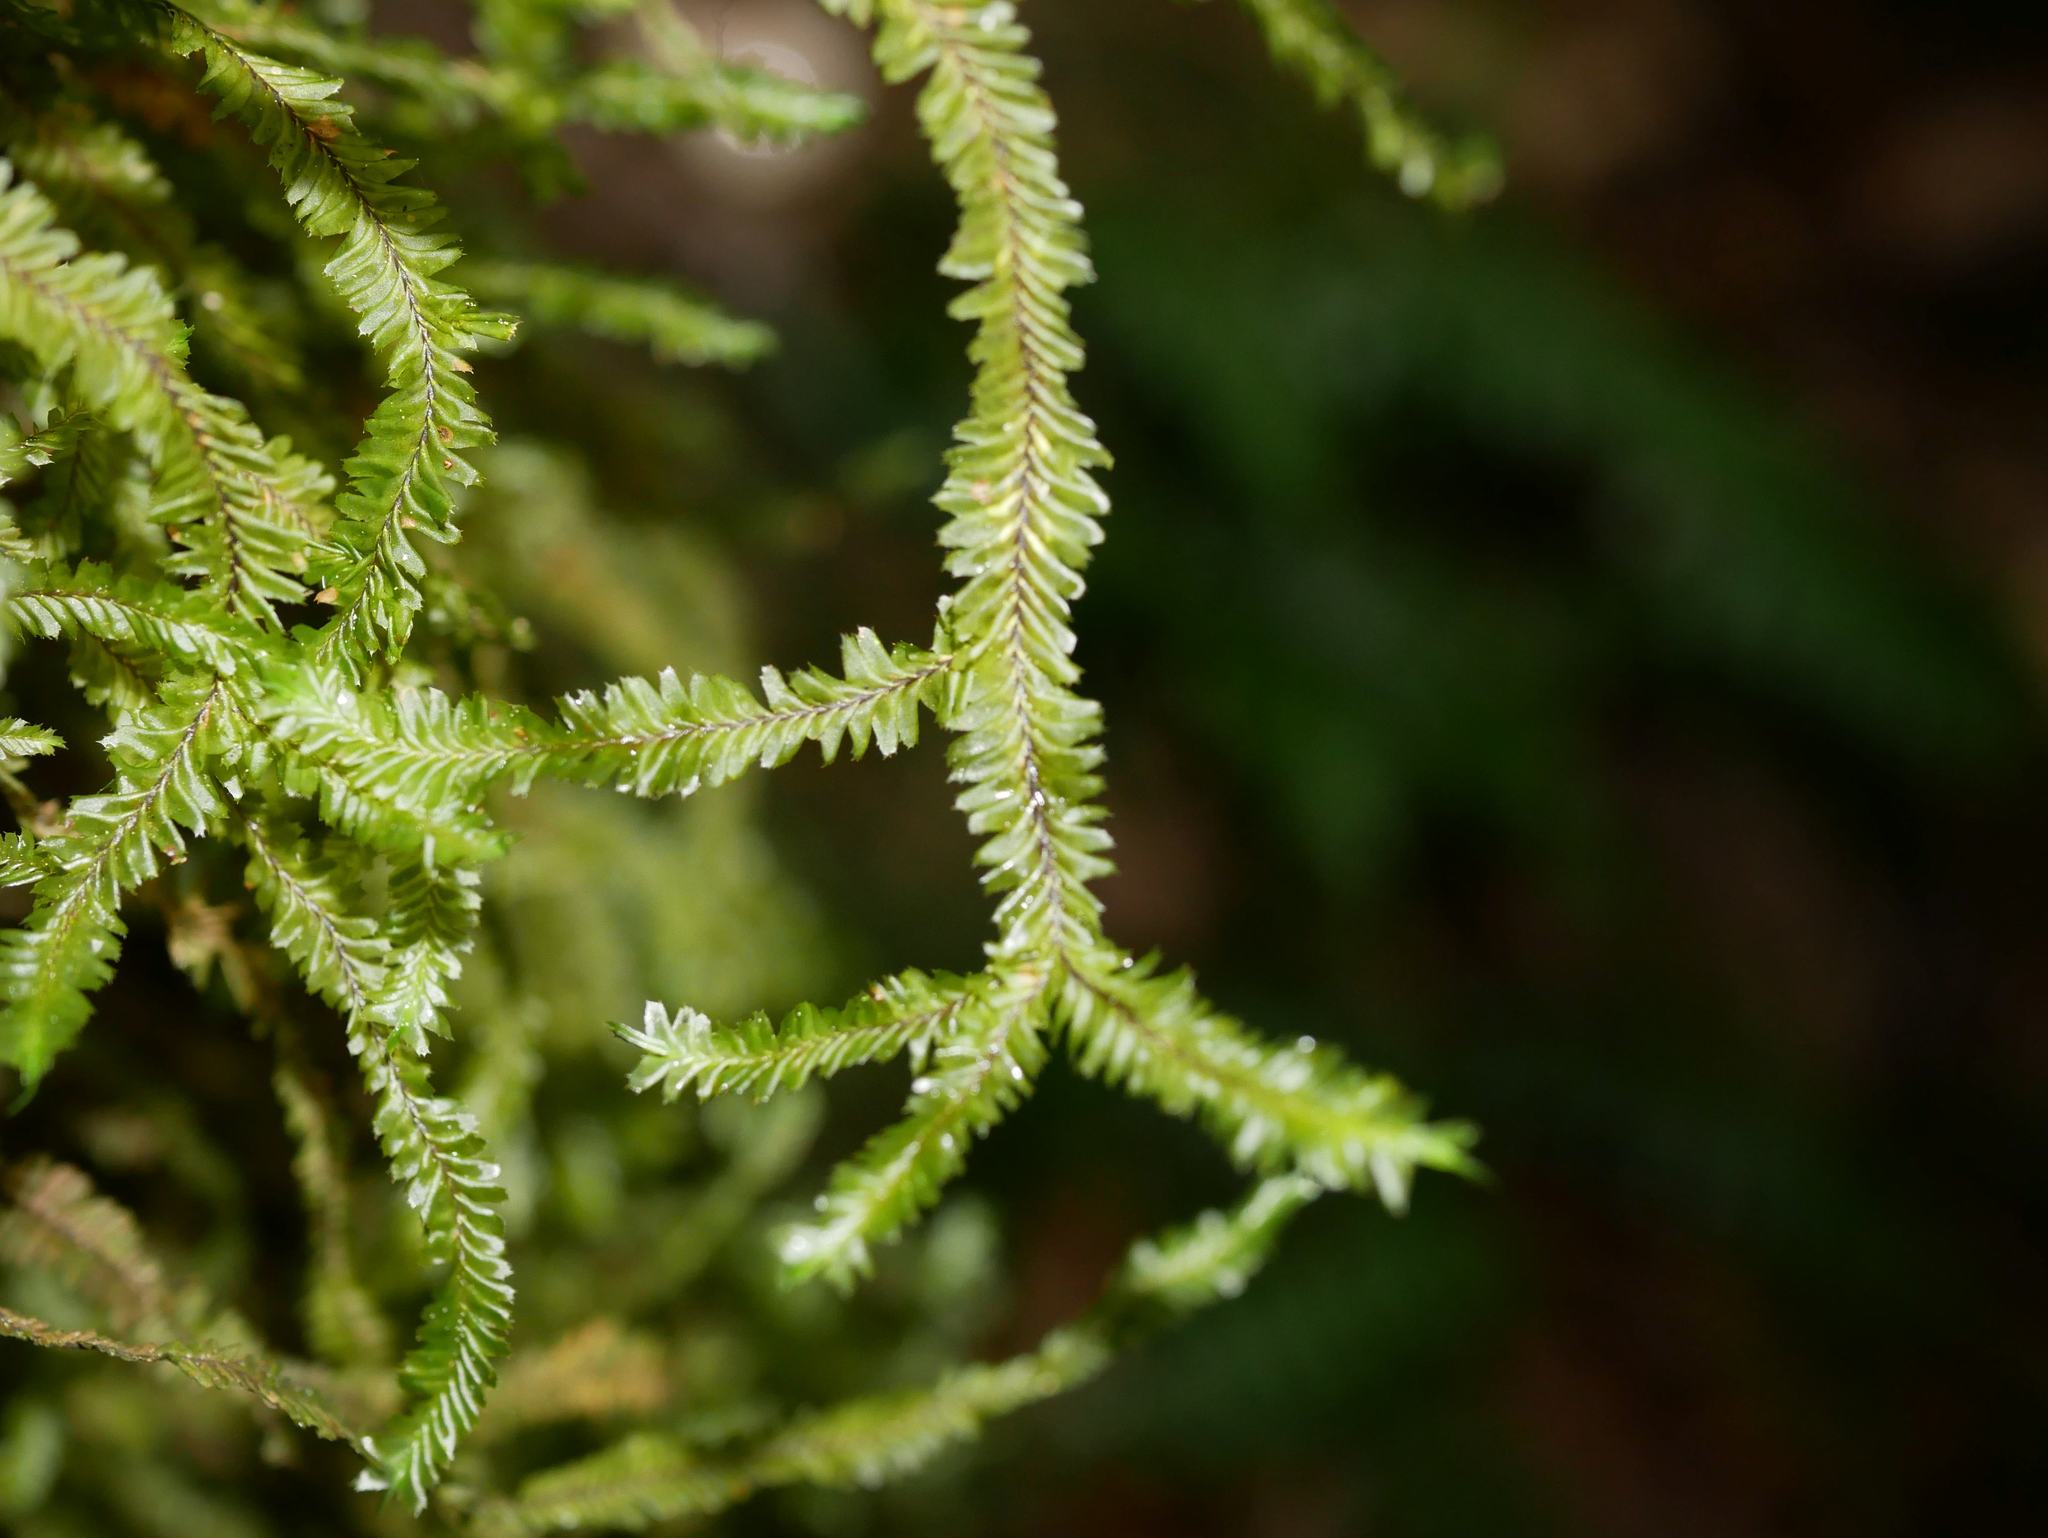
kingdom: Plantae
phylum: Marchantiophyta
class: Jungermanniopsida
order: Jungermanniales
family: Plagiochilaceae
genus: Plagiochila
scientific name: Plagiochila arbuscula
